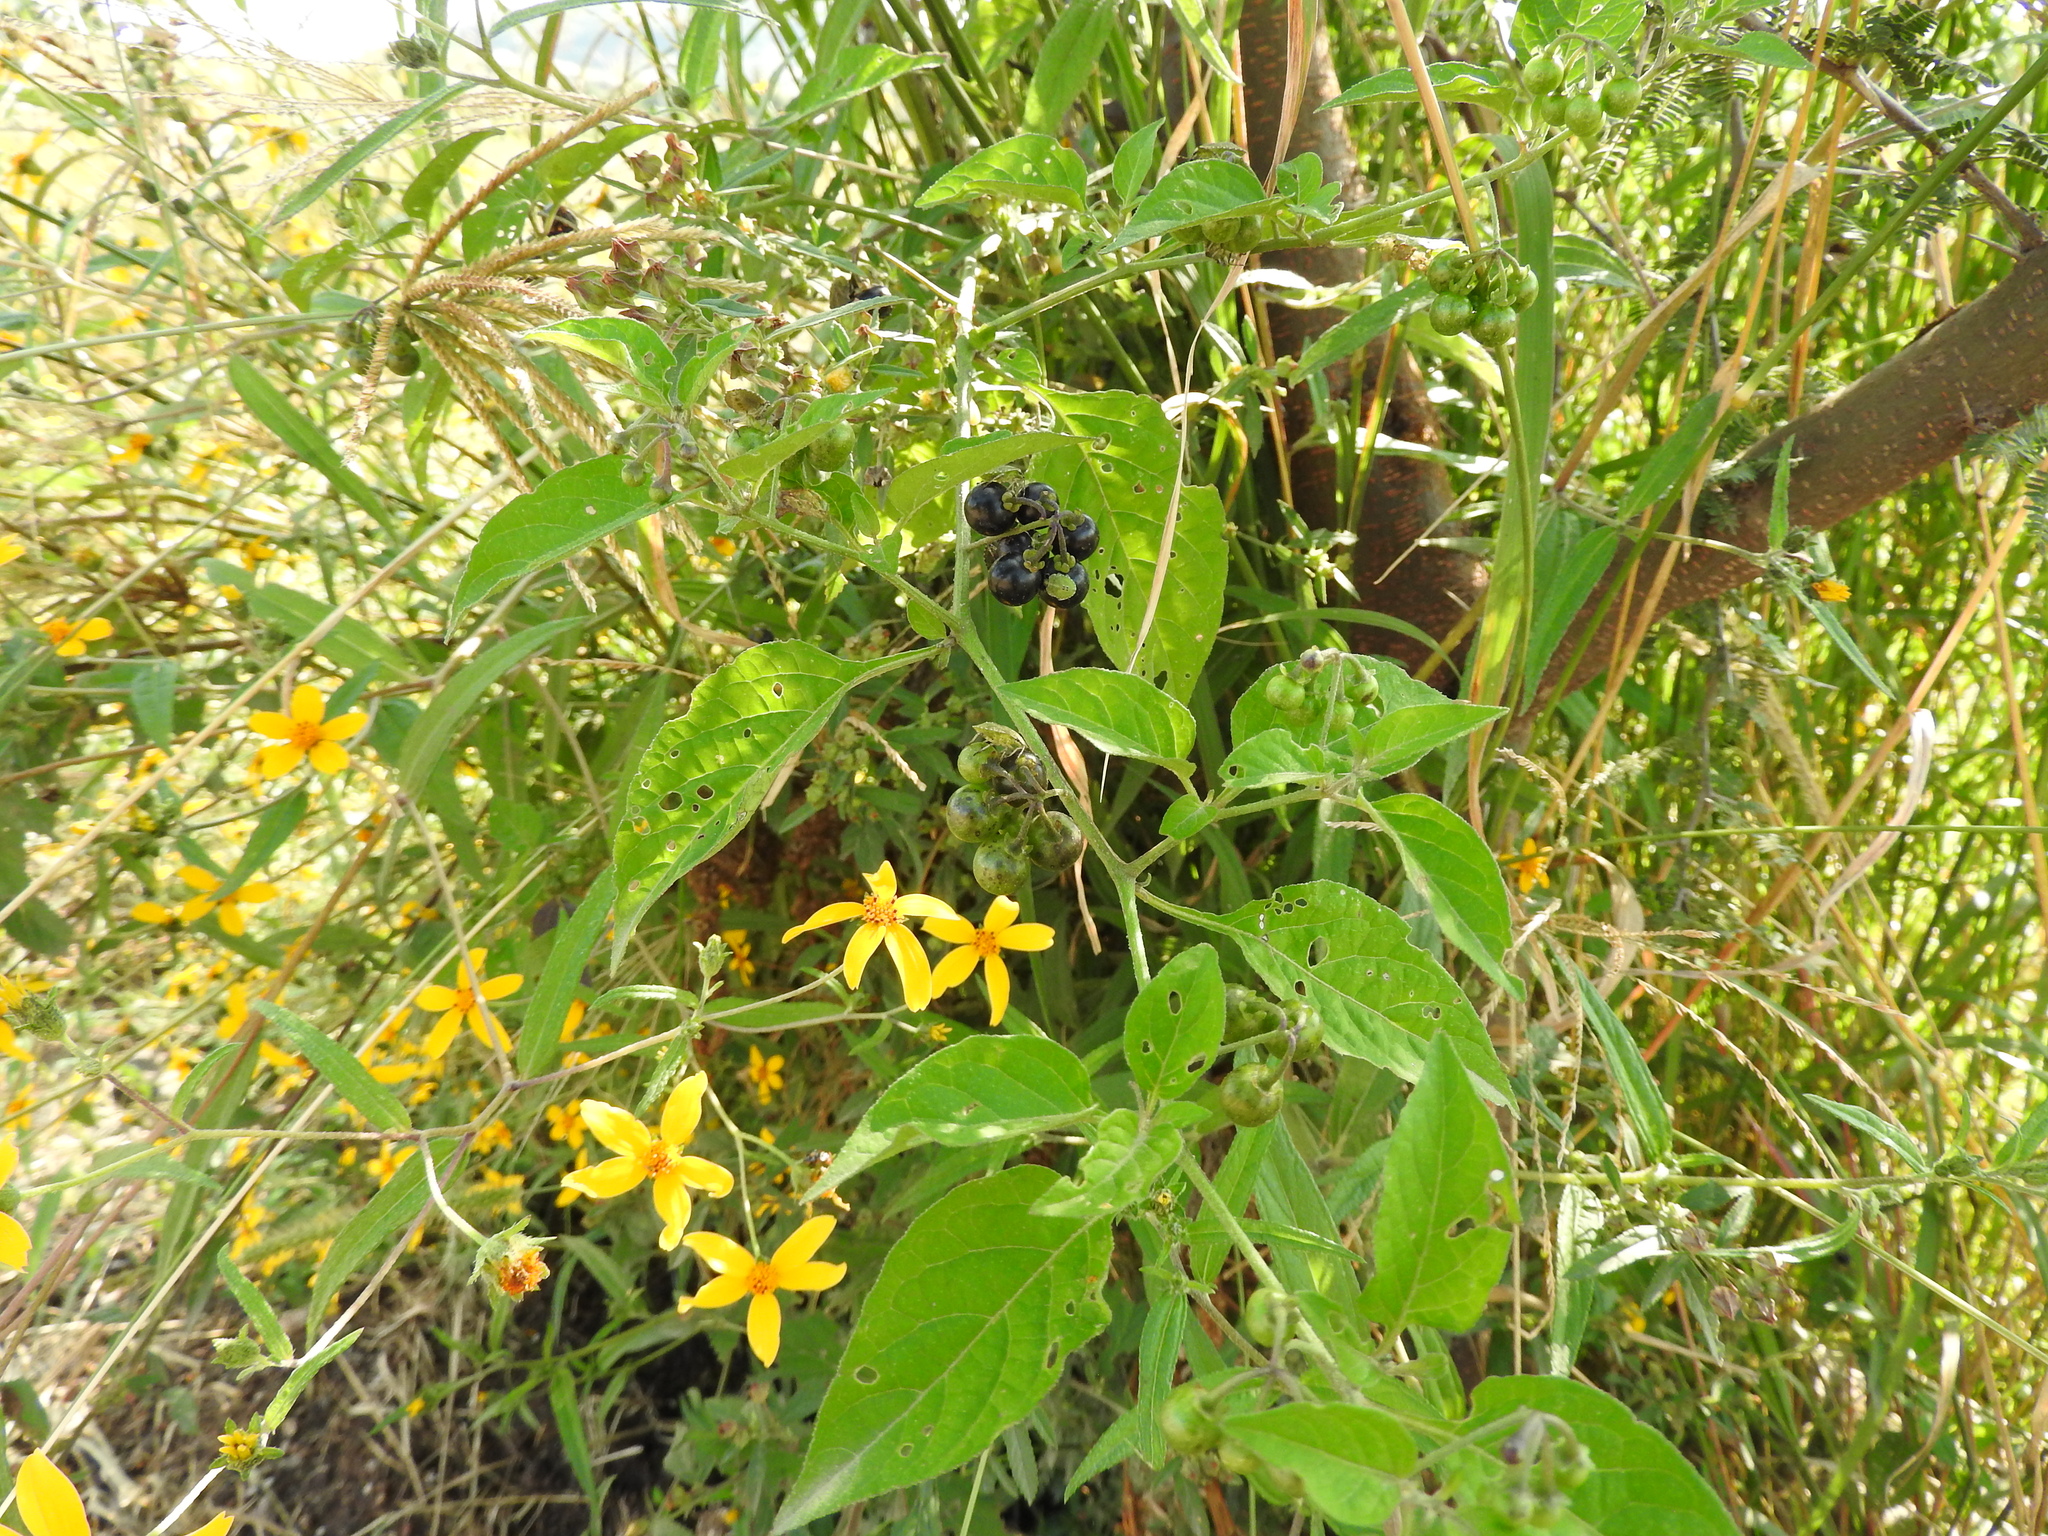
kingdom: Plantae
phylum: Tracheophyta
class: Magnoliopsida
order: Asterales
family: Asteraceae
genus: Aldama
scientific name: Aldama dentata
